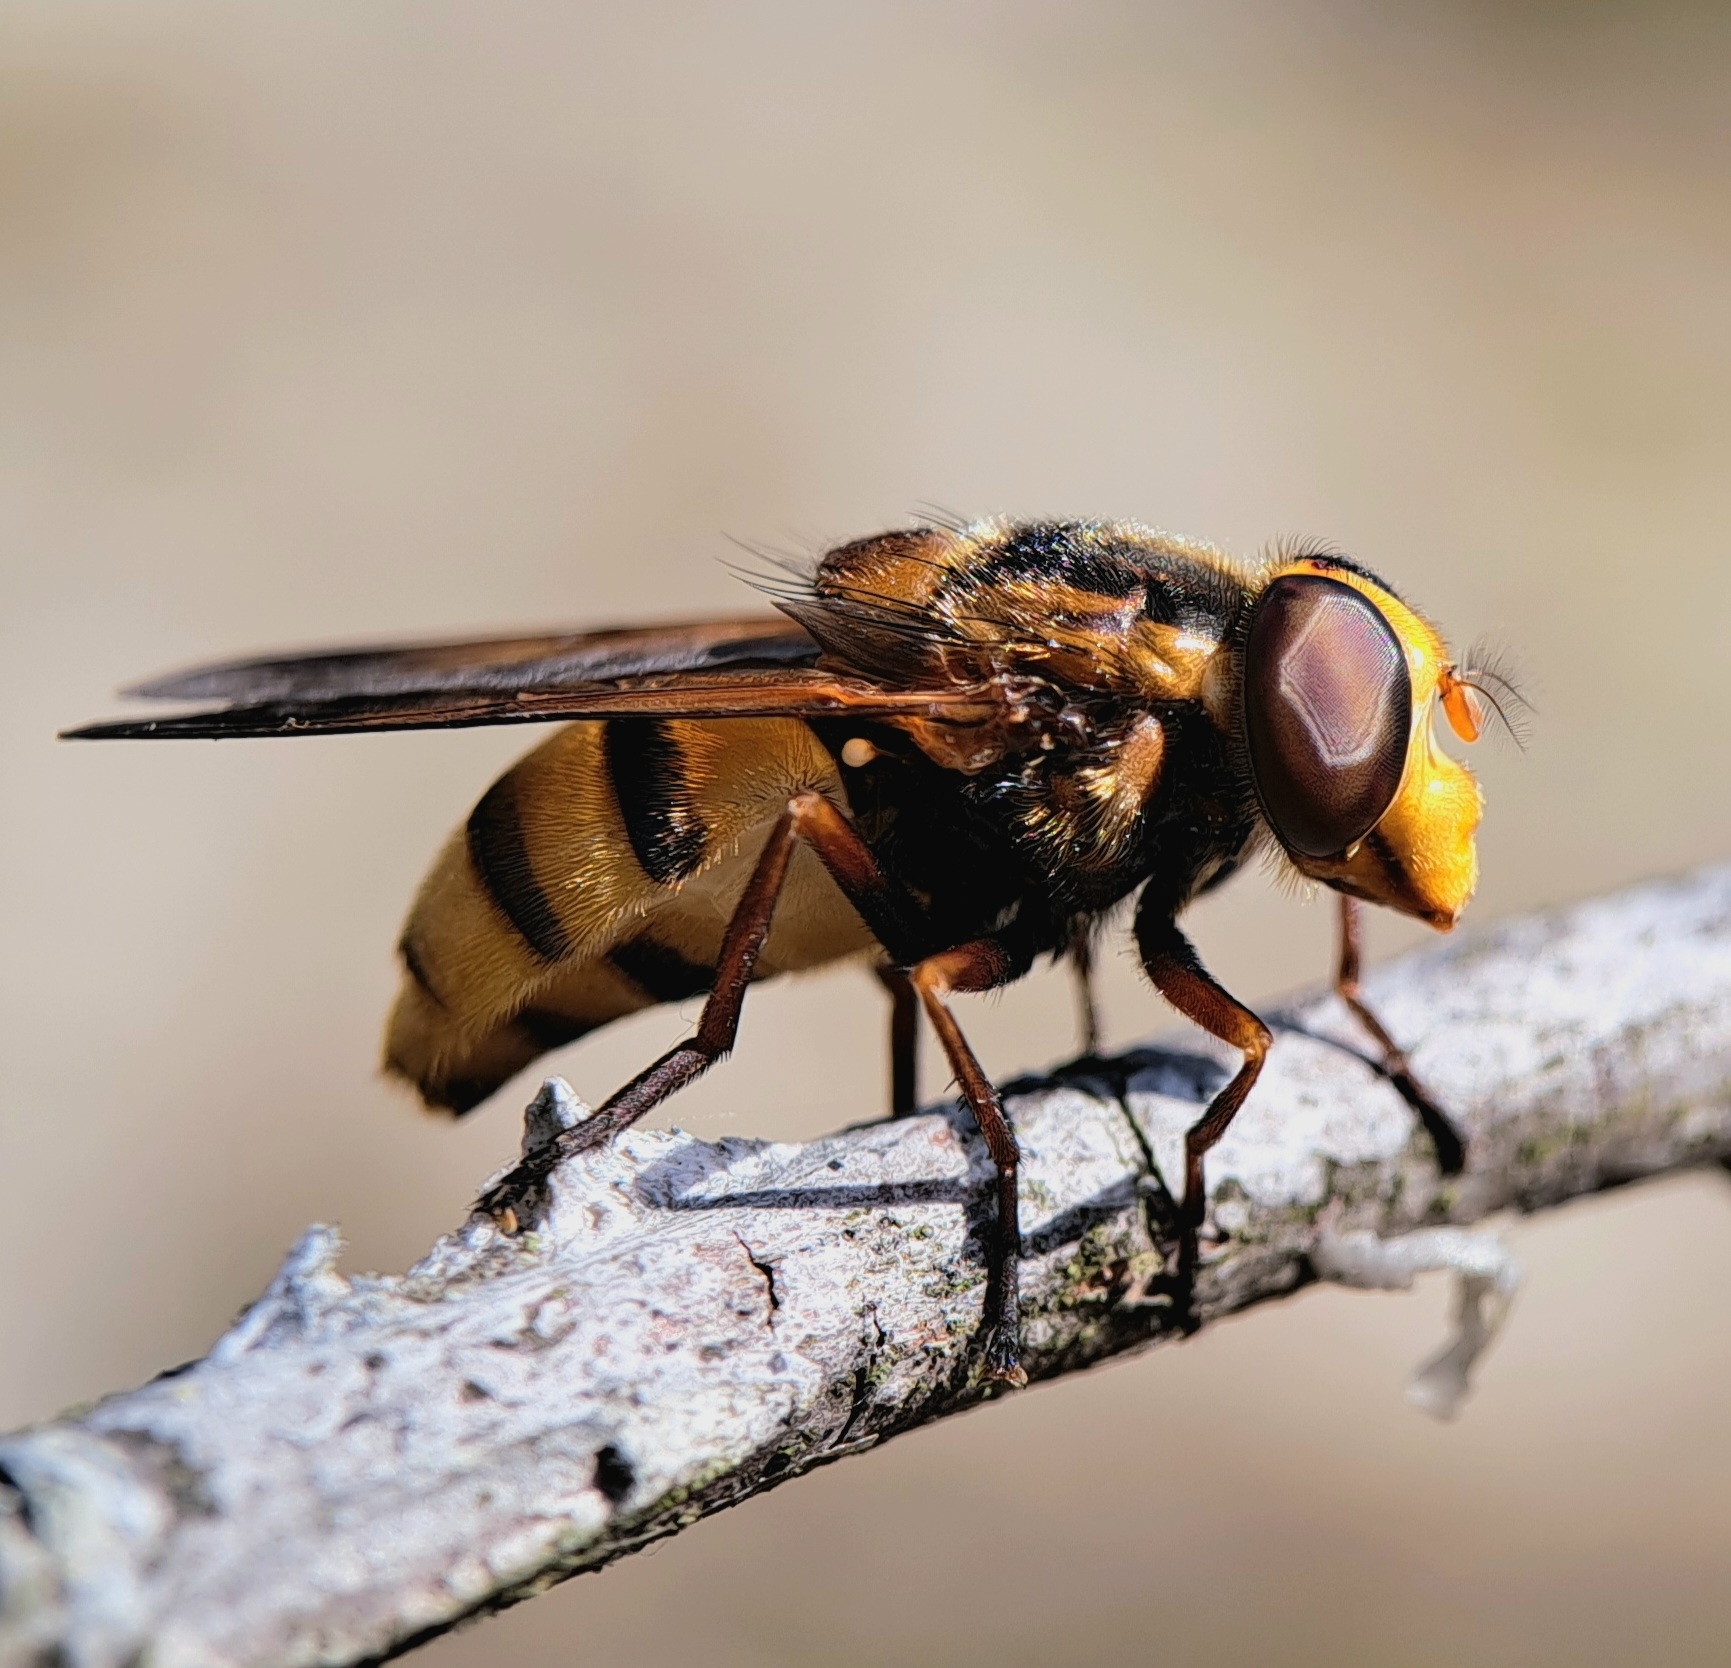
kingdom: Animalia
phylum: Arthropoda
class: Insecta
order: Diptera
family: Syrphidae
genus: Volucella
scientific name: Volucella inanis
